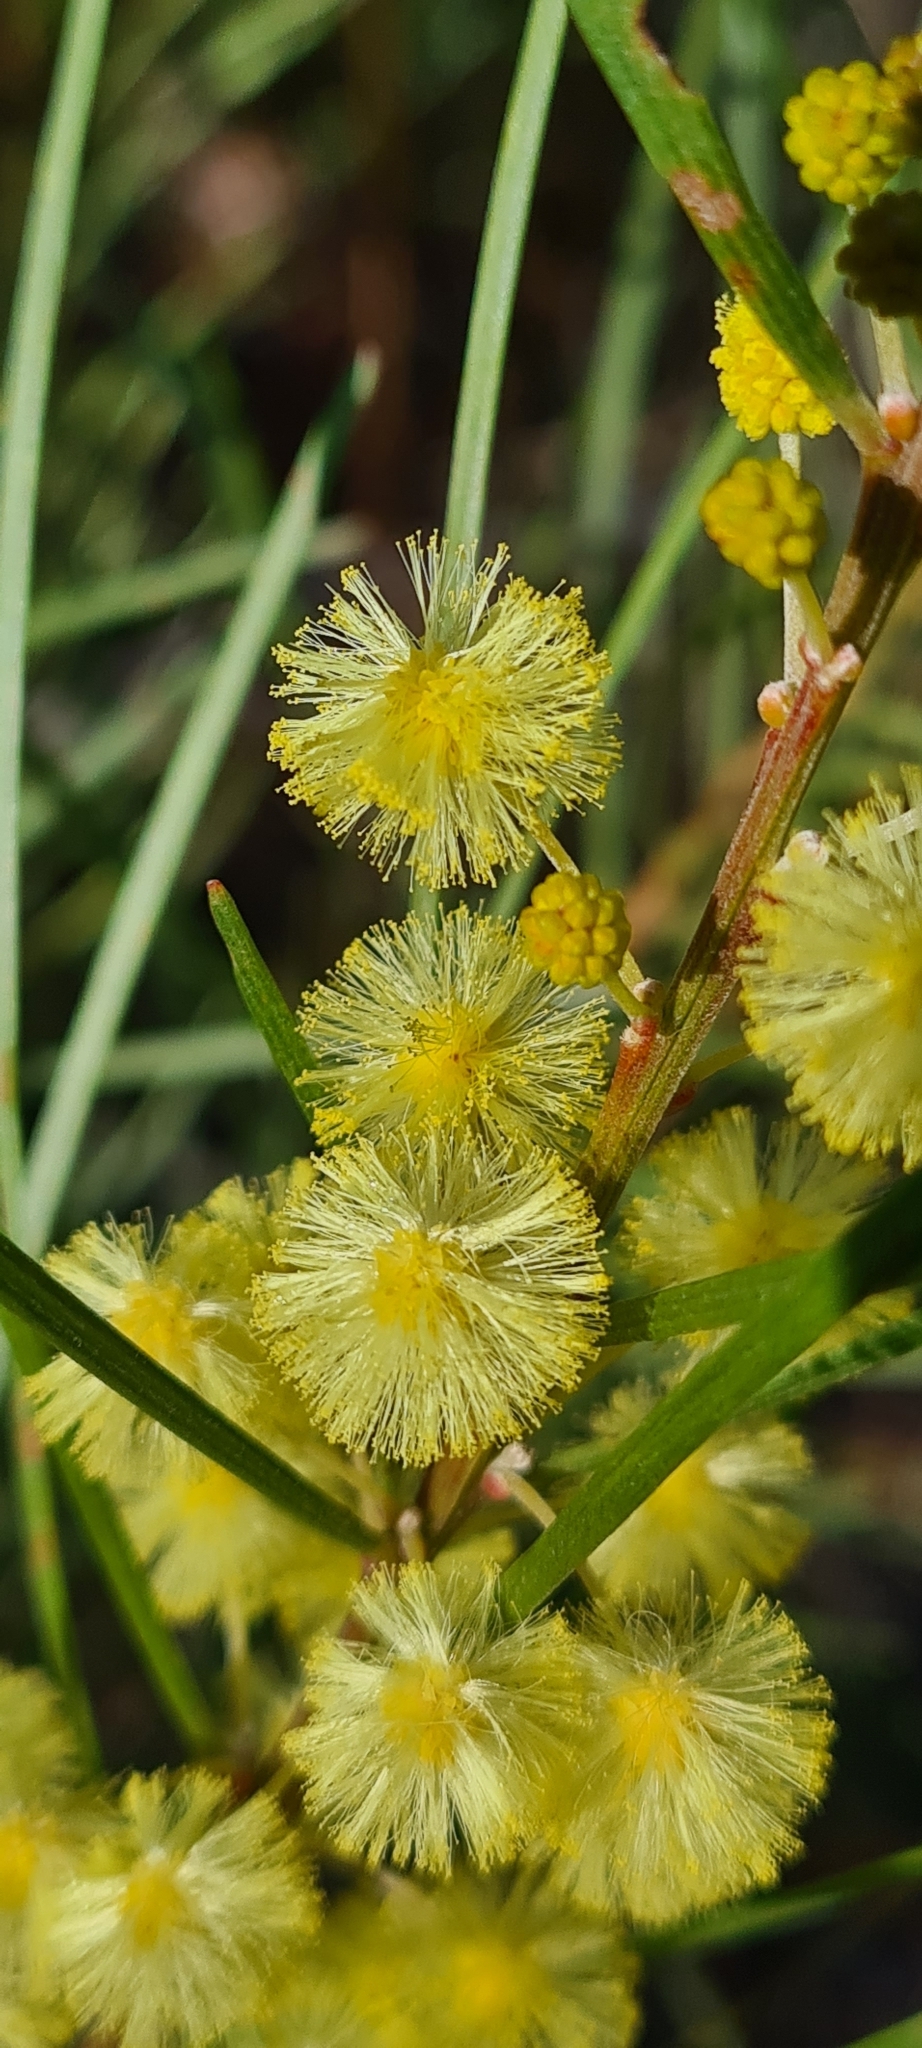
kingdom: Plantae
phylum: Tracheophyta
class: Magnoliopsida
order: Fabales
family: Fabaceae
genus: Acacia
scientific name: Acacia elongata
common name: Swamp wattle
